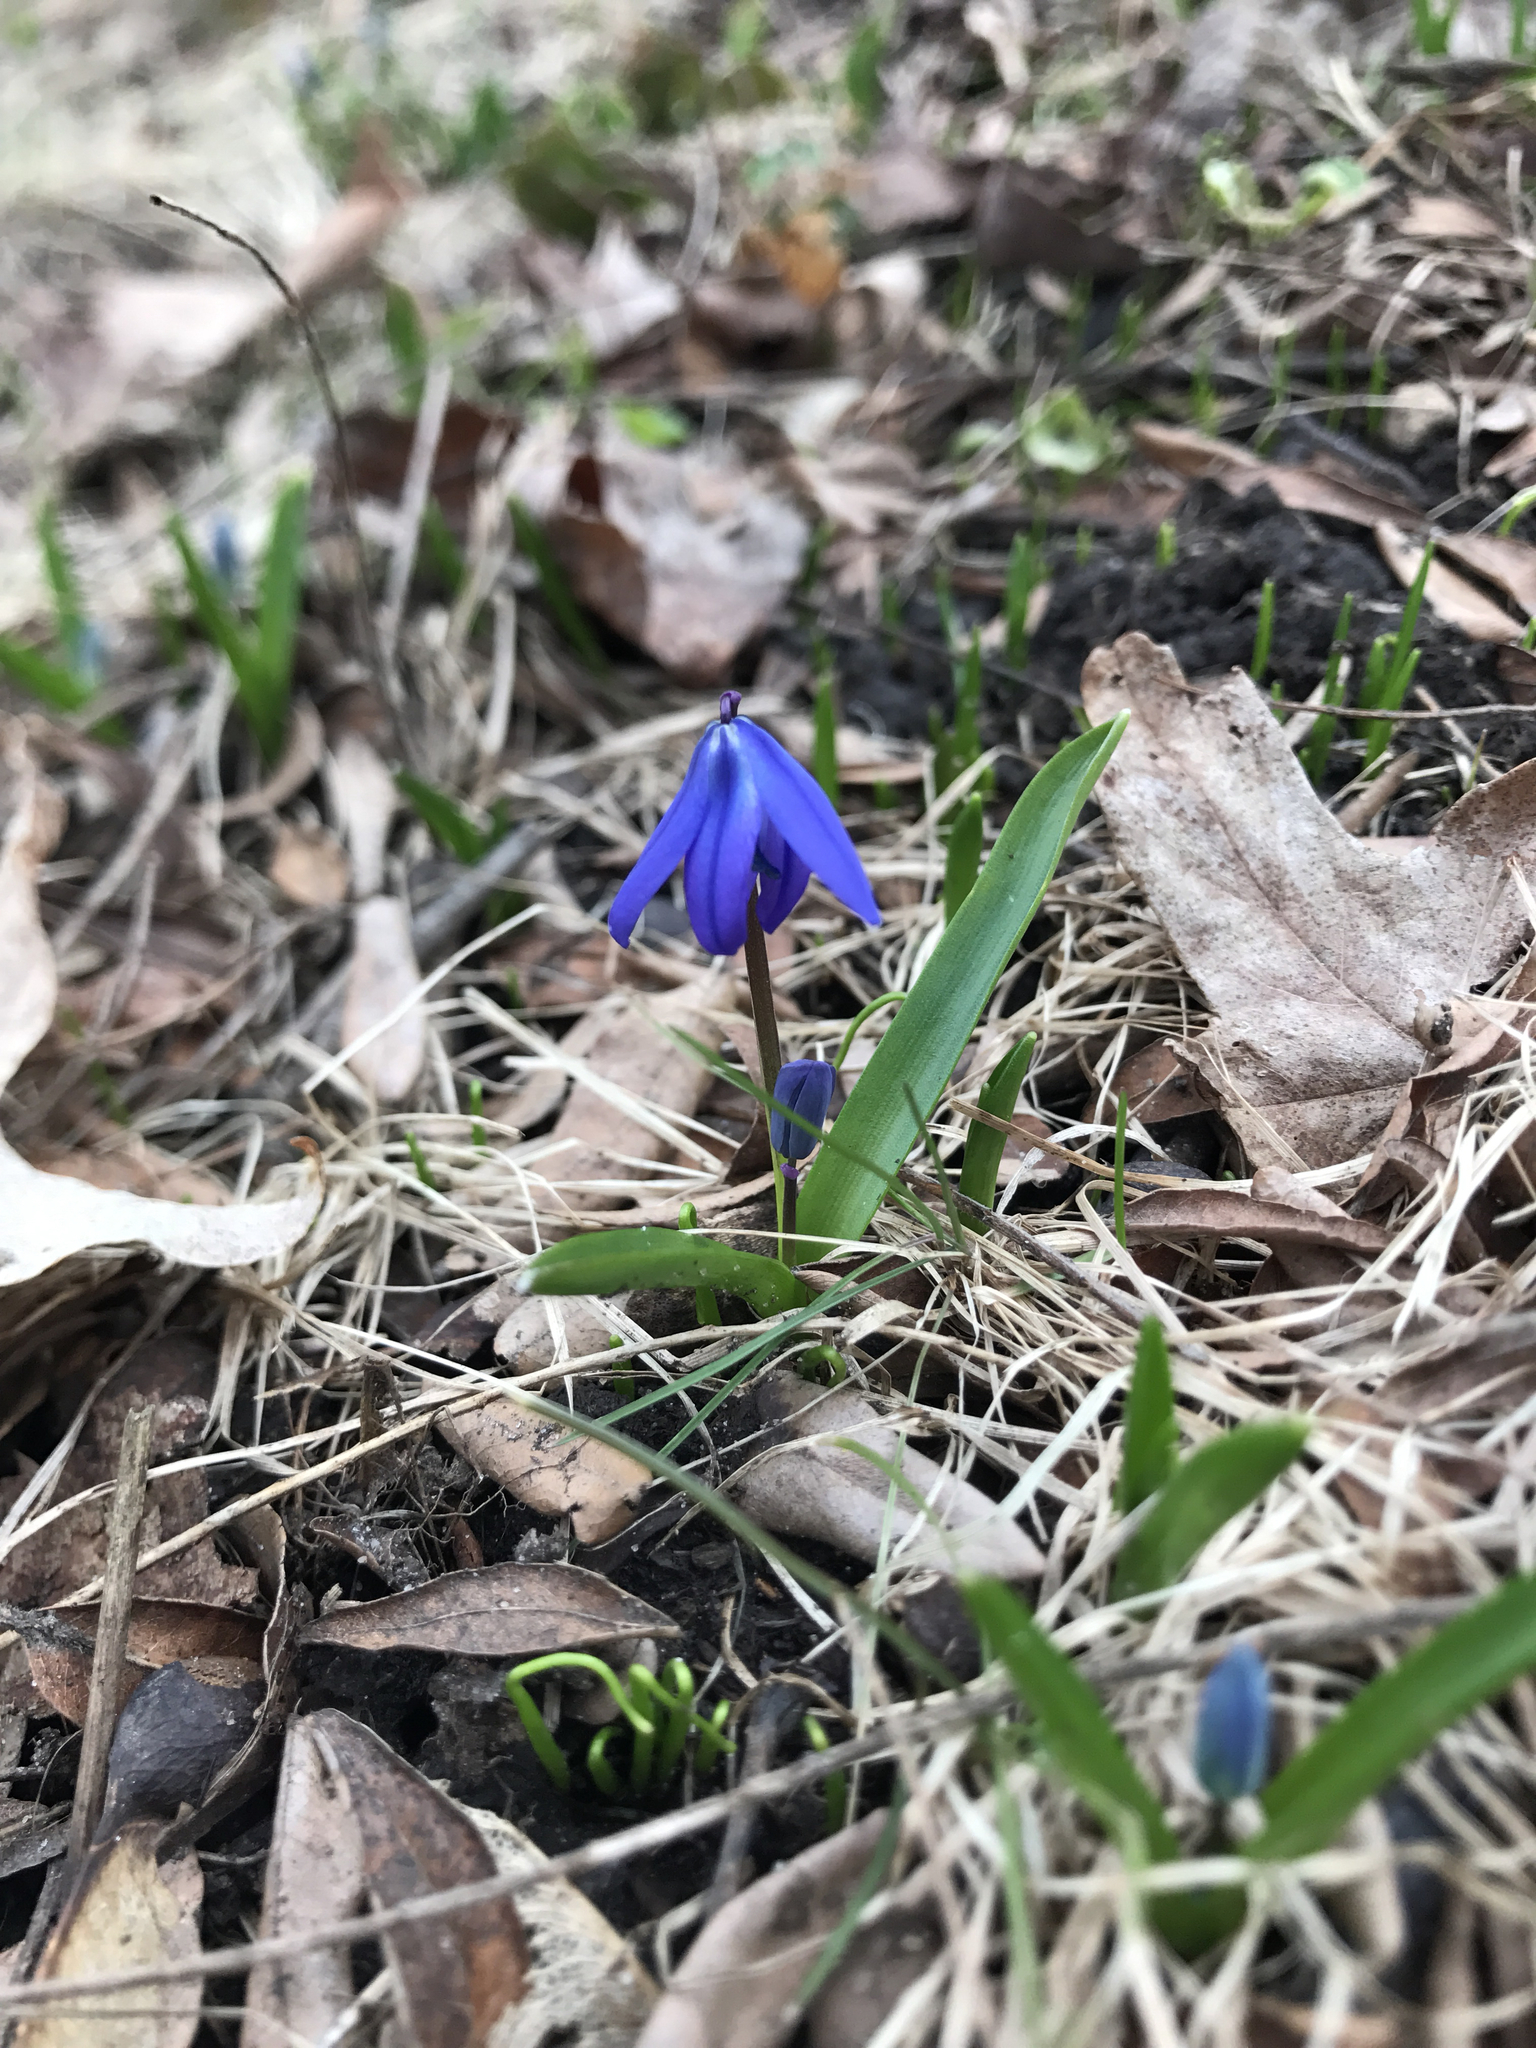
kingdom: Plantae
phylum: Tracheophyta
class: Liliopsida
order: Asparagales
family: Asparagaceae
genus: Scilla
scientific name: Scilla siberica
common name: Siberian squill
